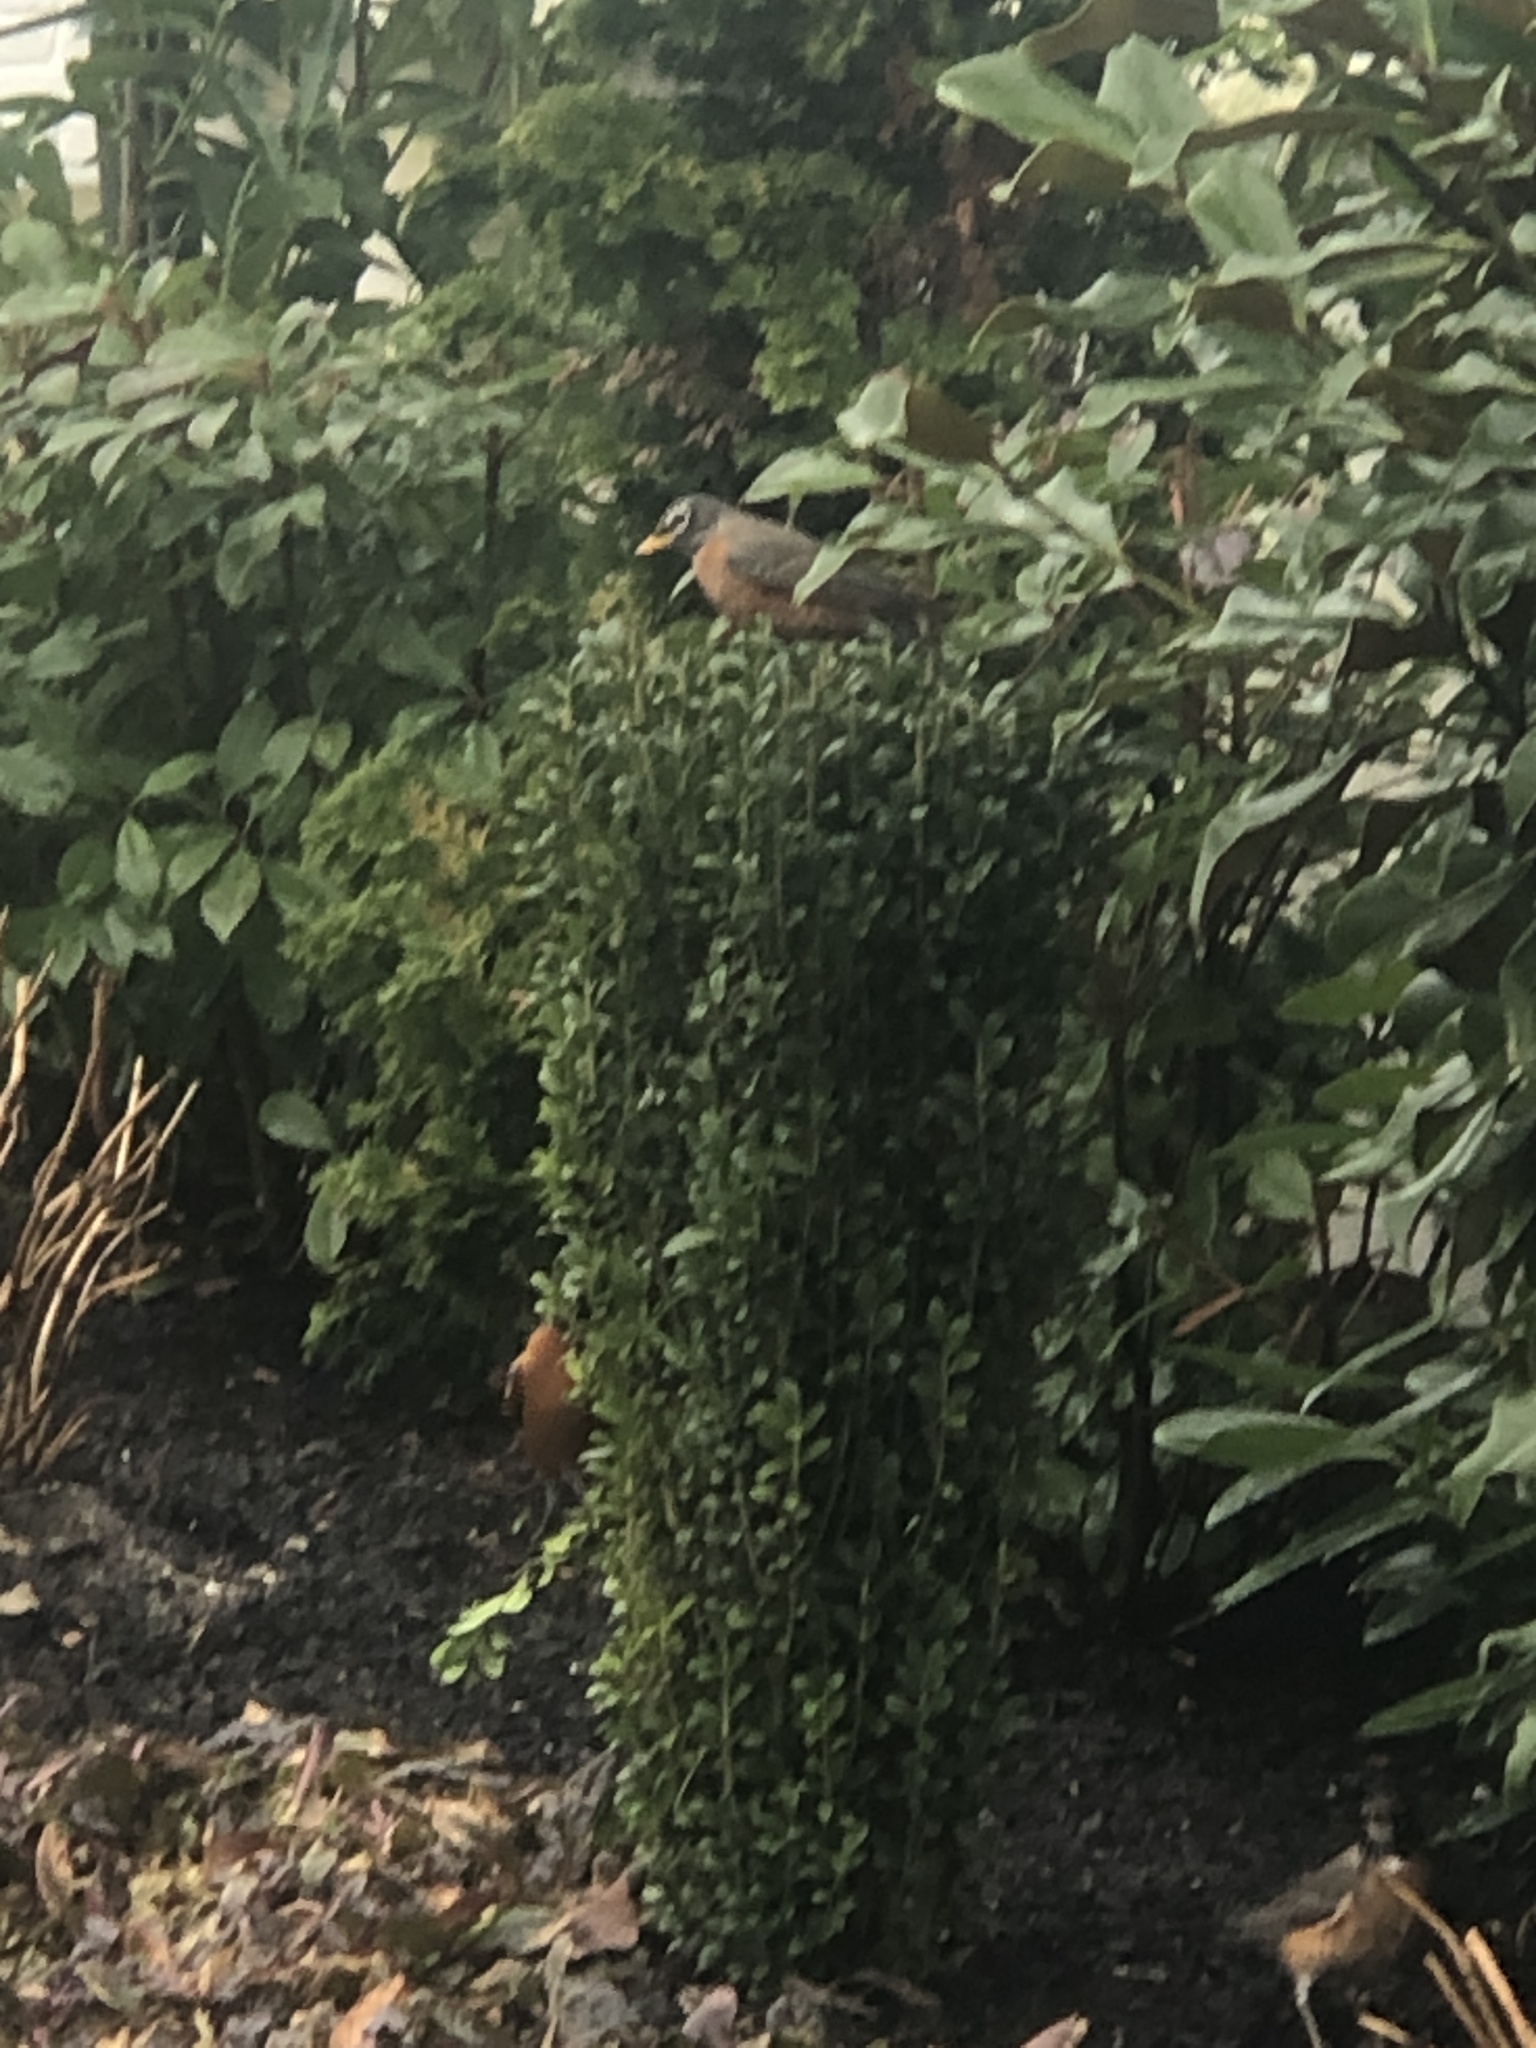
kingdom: Animalia
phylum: Chordata
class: Aves
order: Passeriformes
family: Turdidae
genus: Turdus
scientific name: Turdus migratorius
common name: American robin
